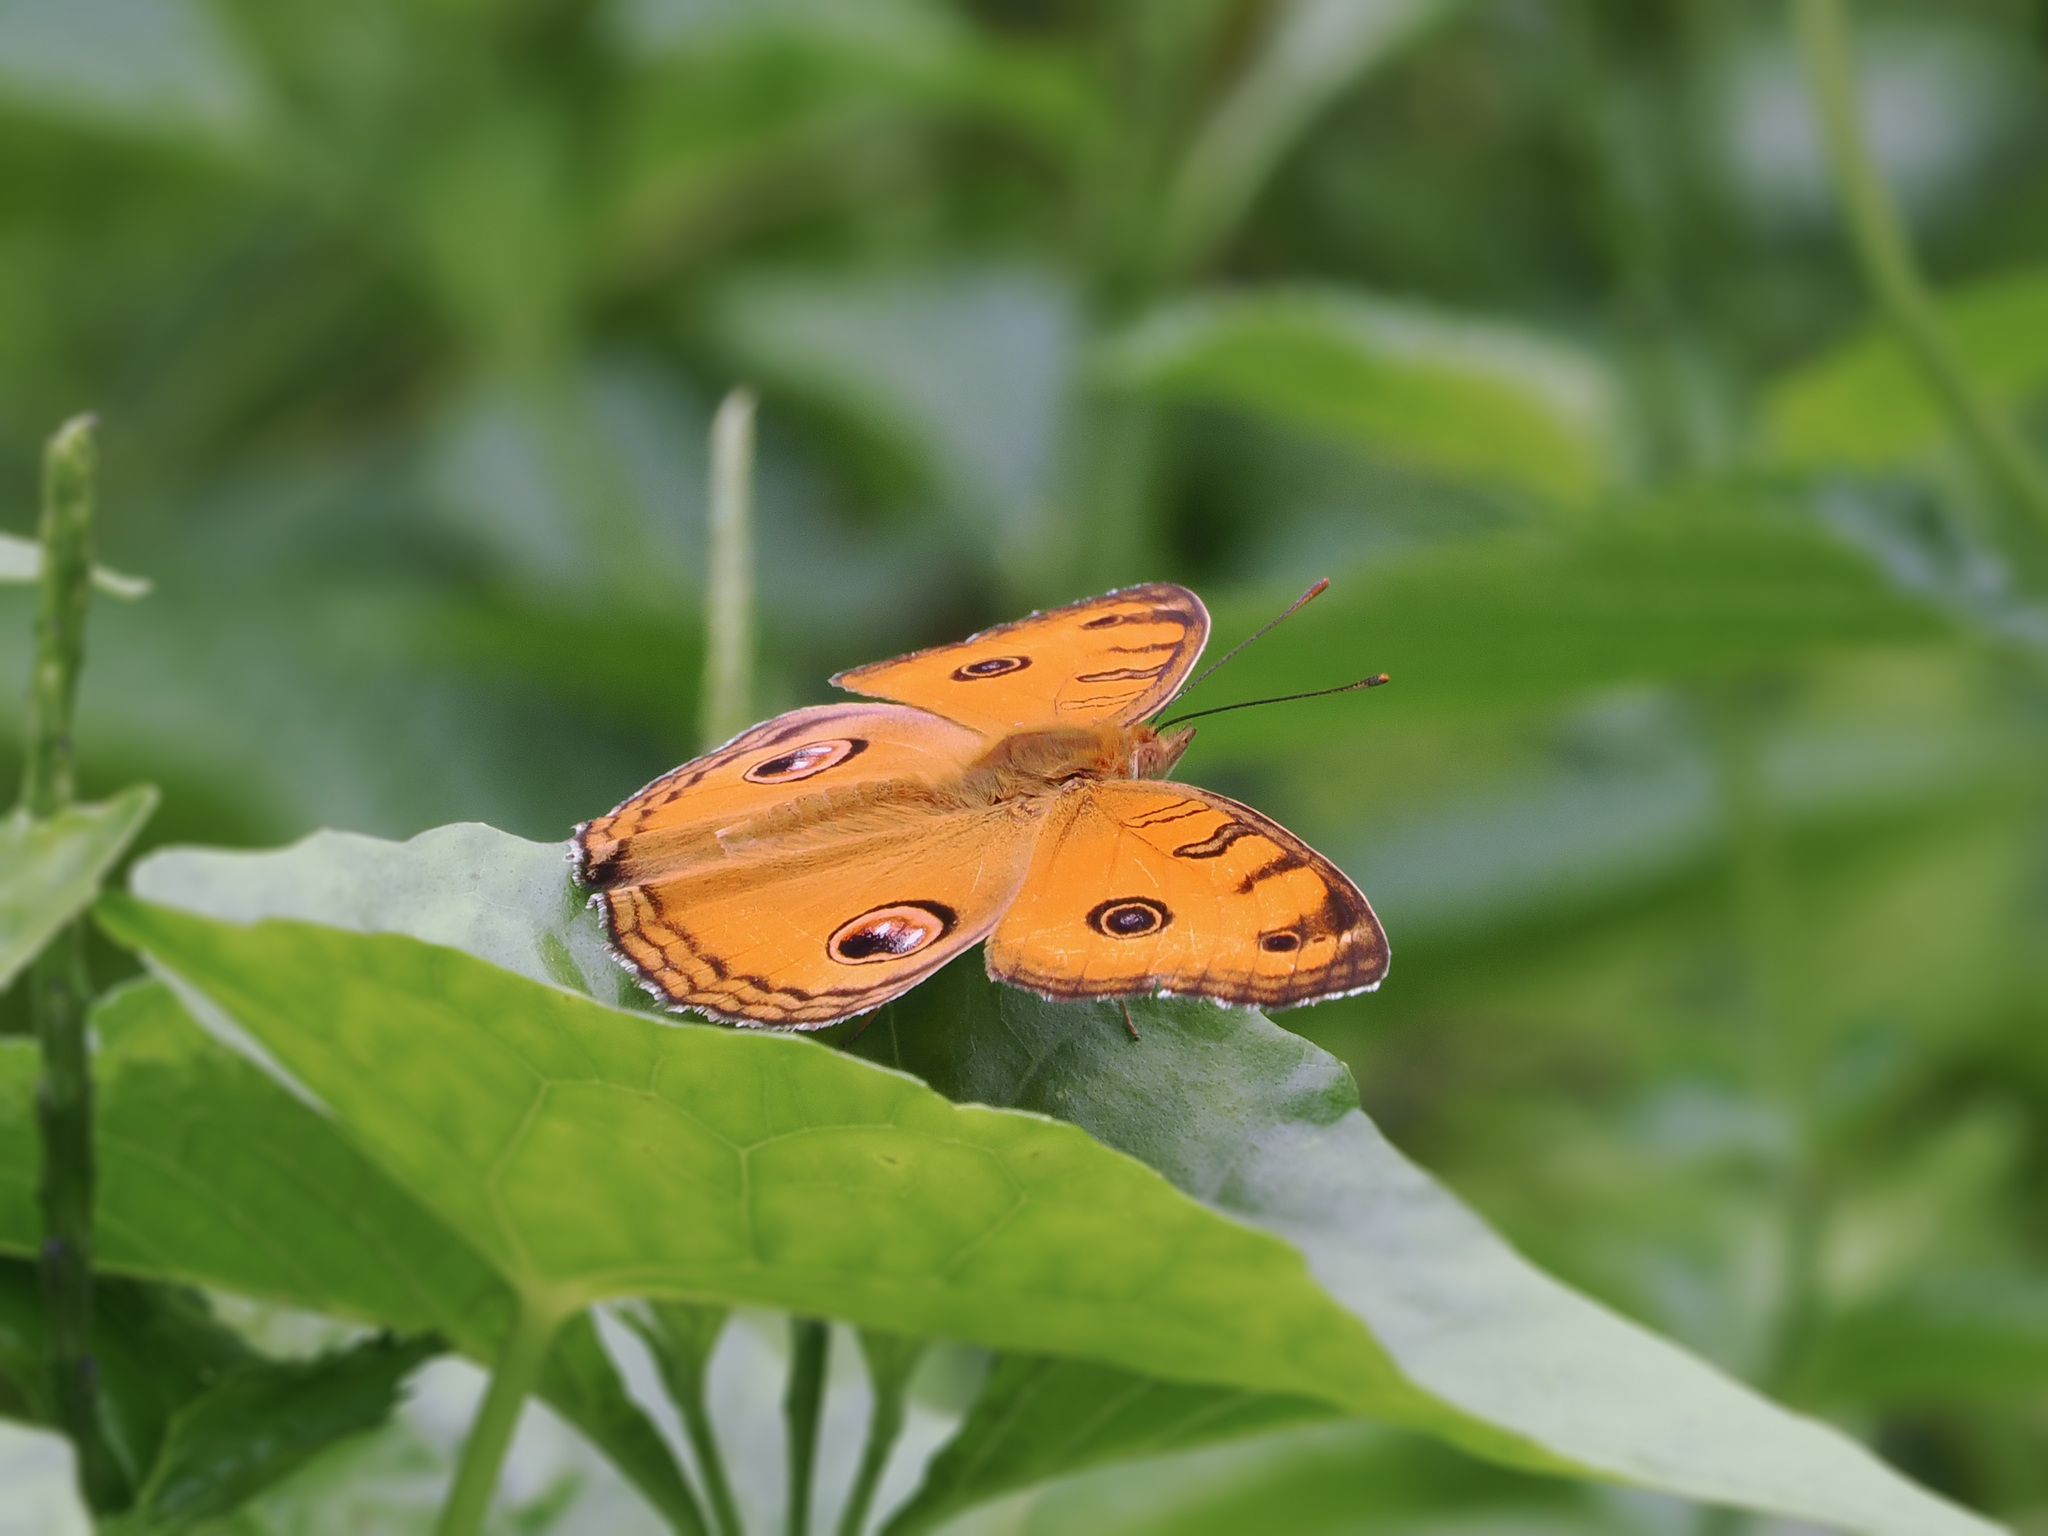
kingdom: Animalia
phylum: Arthropoda
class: Insecta
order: Lepidoptera
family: Nymphalidae
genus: Junonia
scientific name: Junonia almana
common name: Peacock pansy
